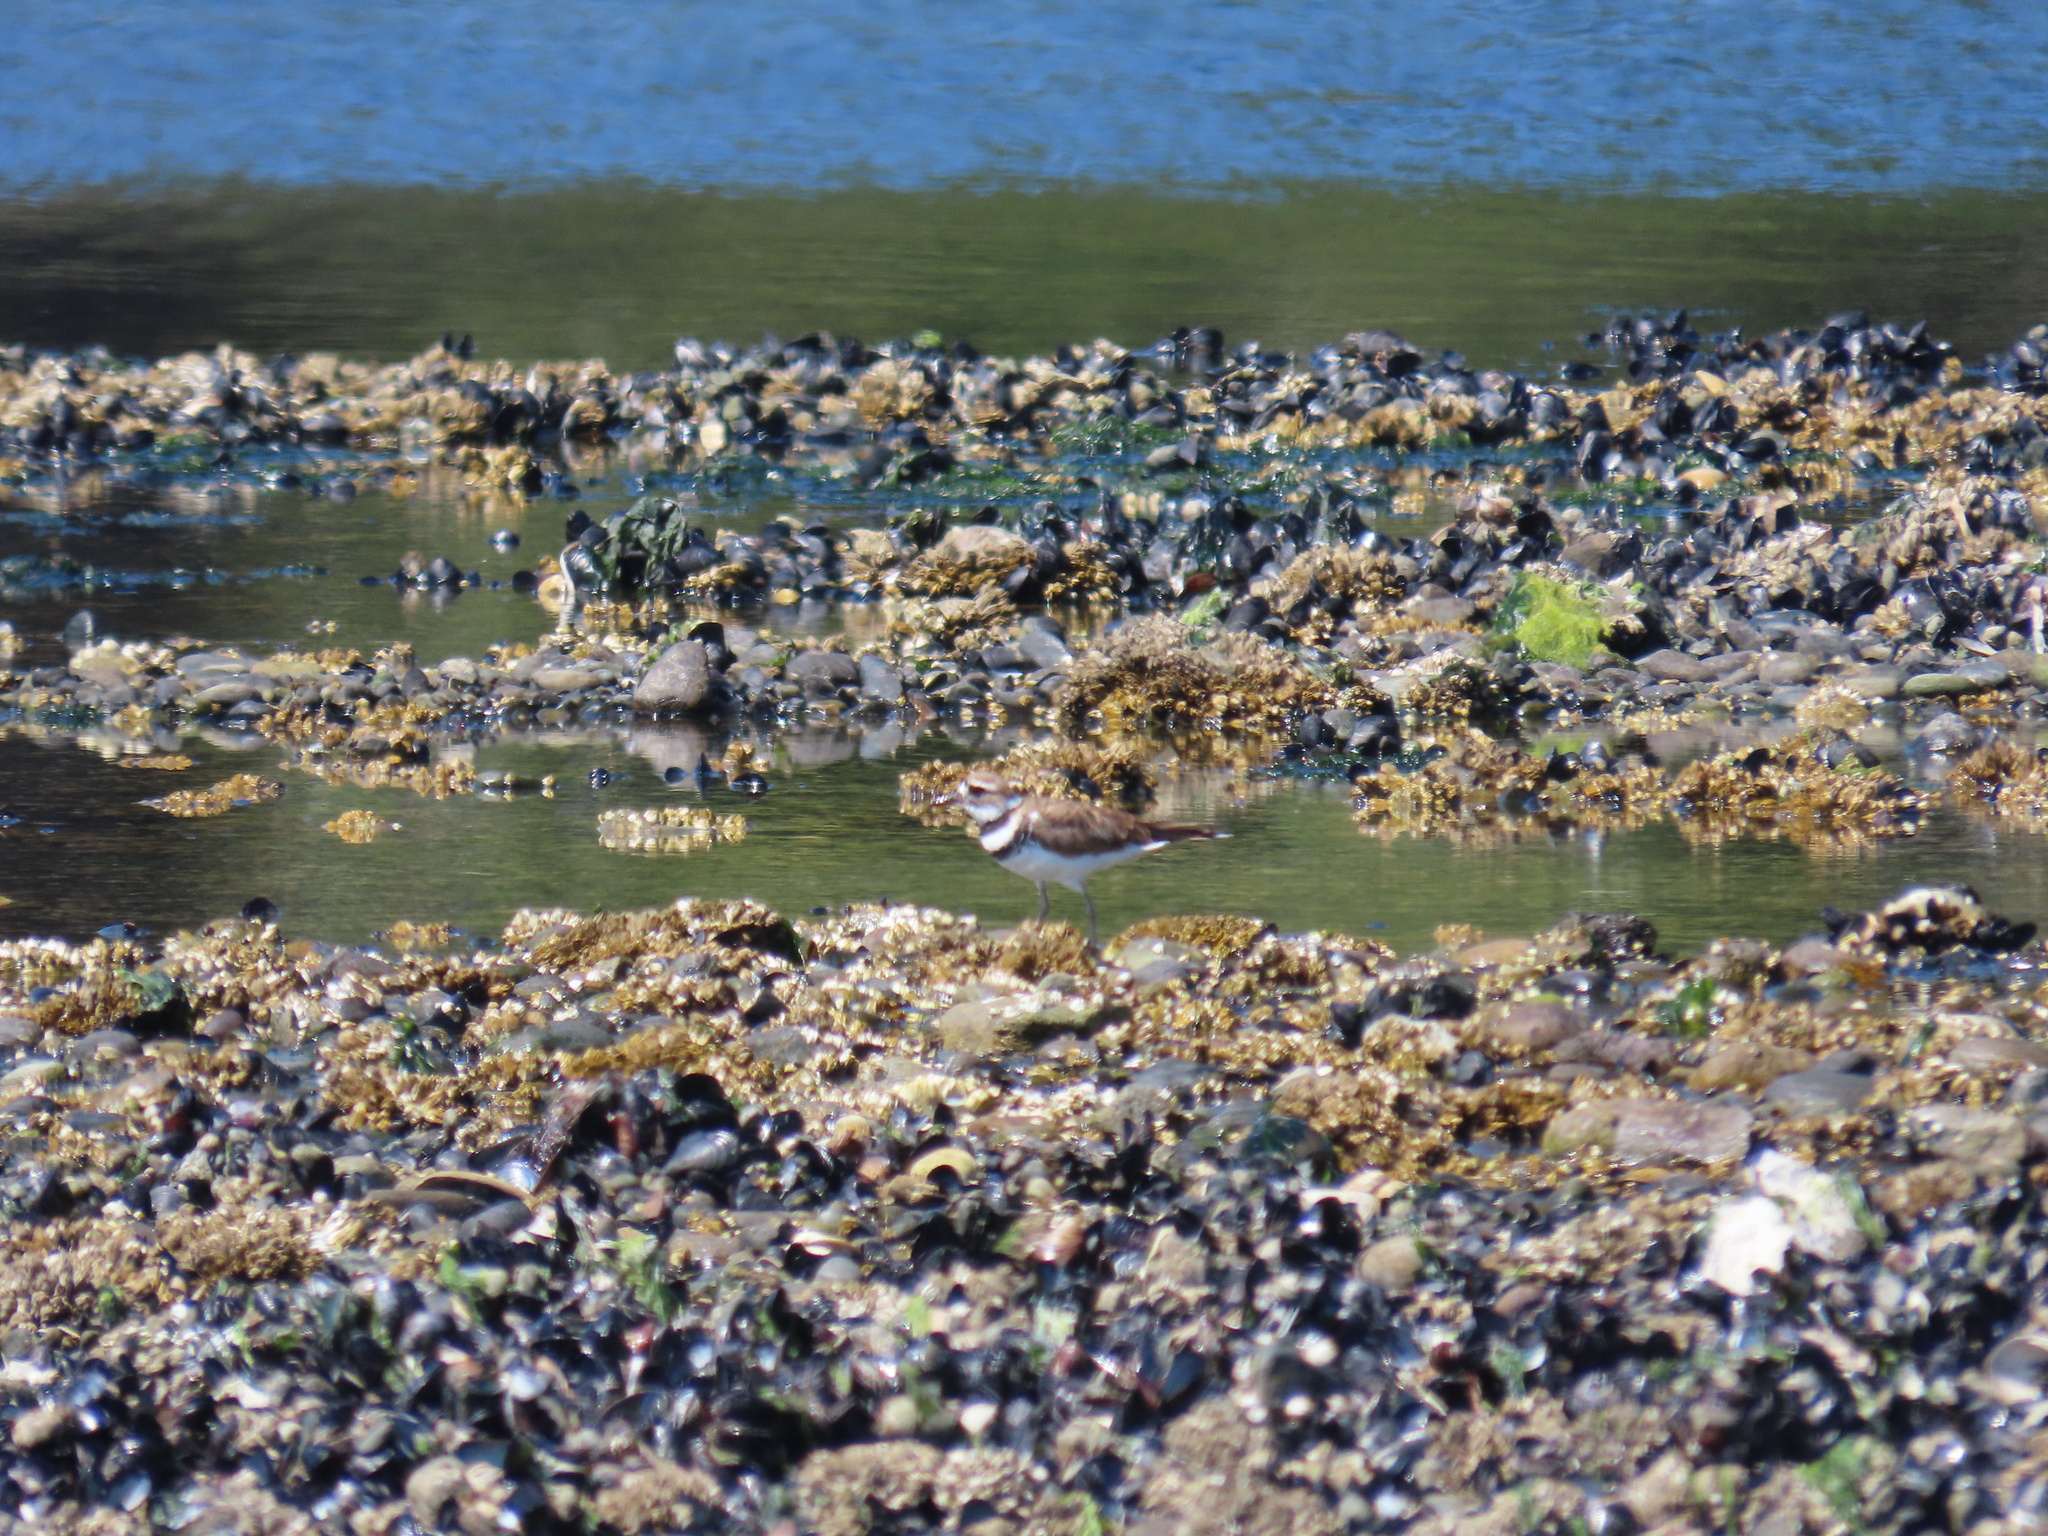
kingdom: Animalia
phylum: Chordata
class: Aves
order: Charadriiformes
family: Charadriidae
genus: Charadrius
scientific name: Charadrius vociferus
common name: Killdeer
